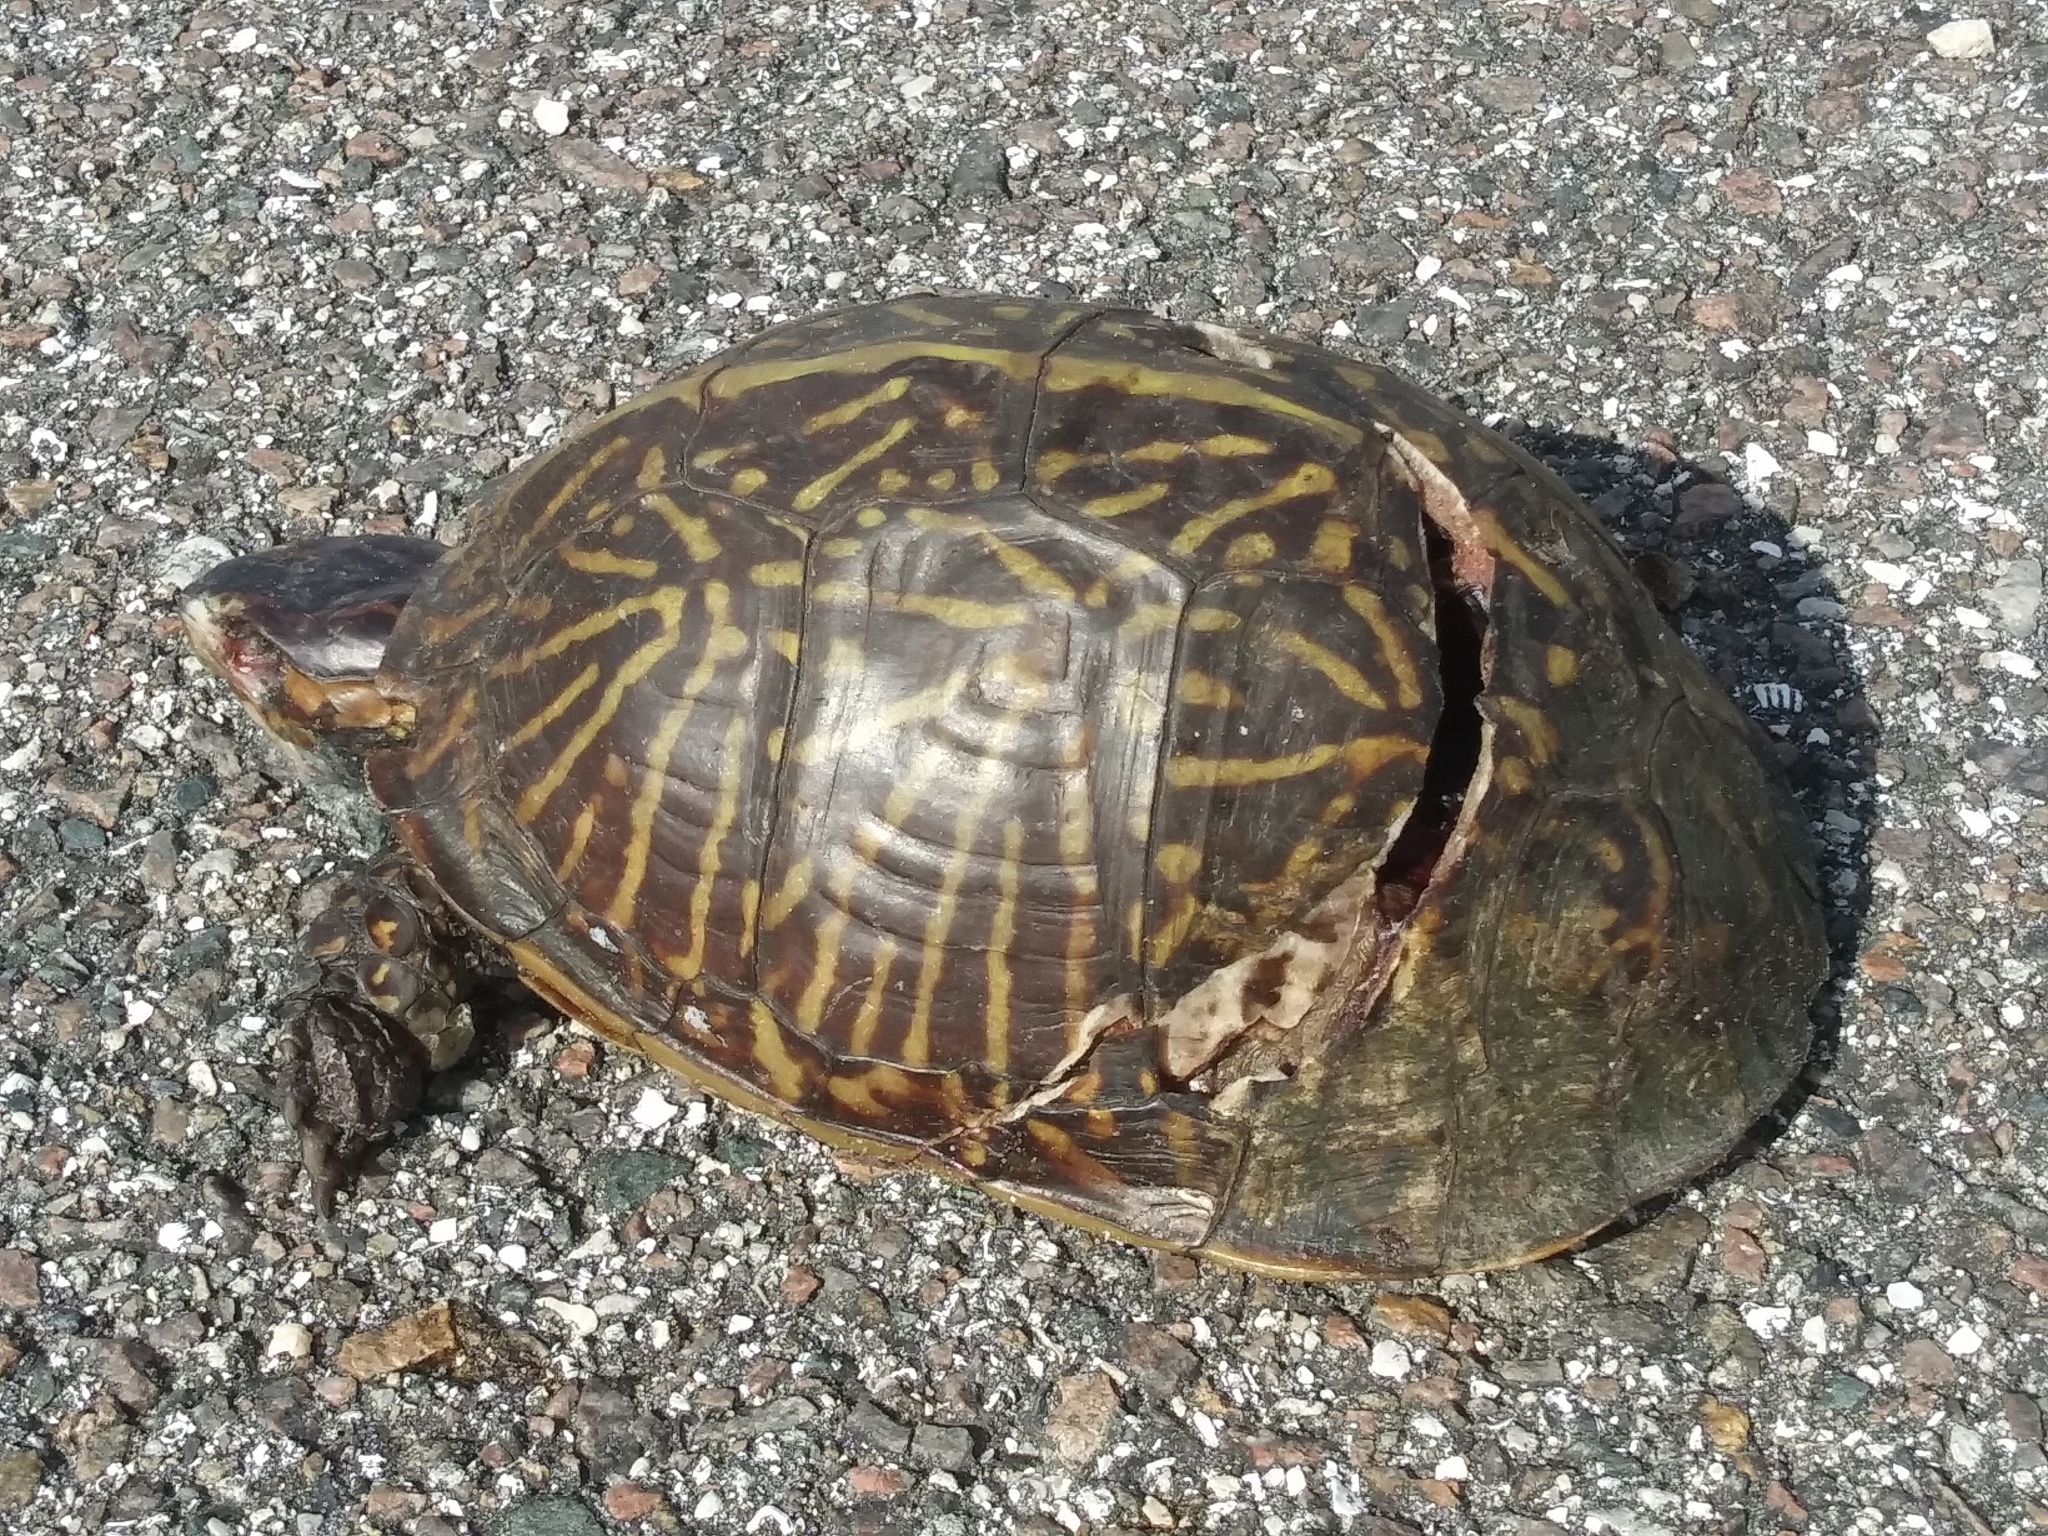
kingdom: Animalia
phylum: Chordata
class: Testudines
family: Emydidae
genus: Terrapene
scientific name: Terrapene carolina
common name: Common box turtle
